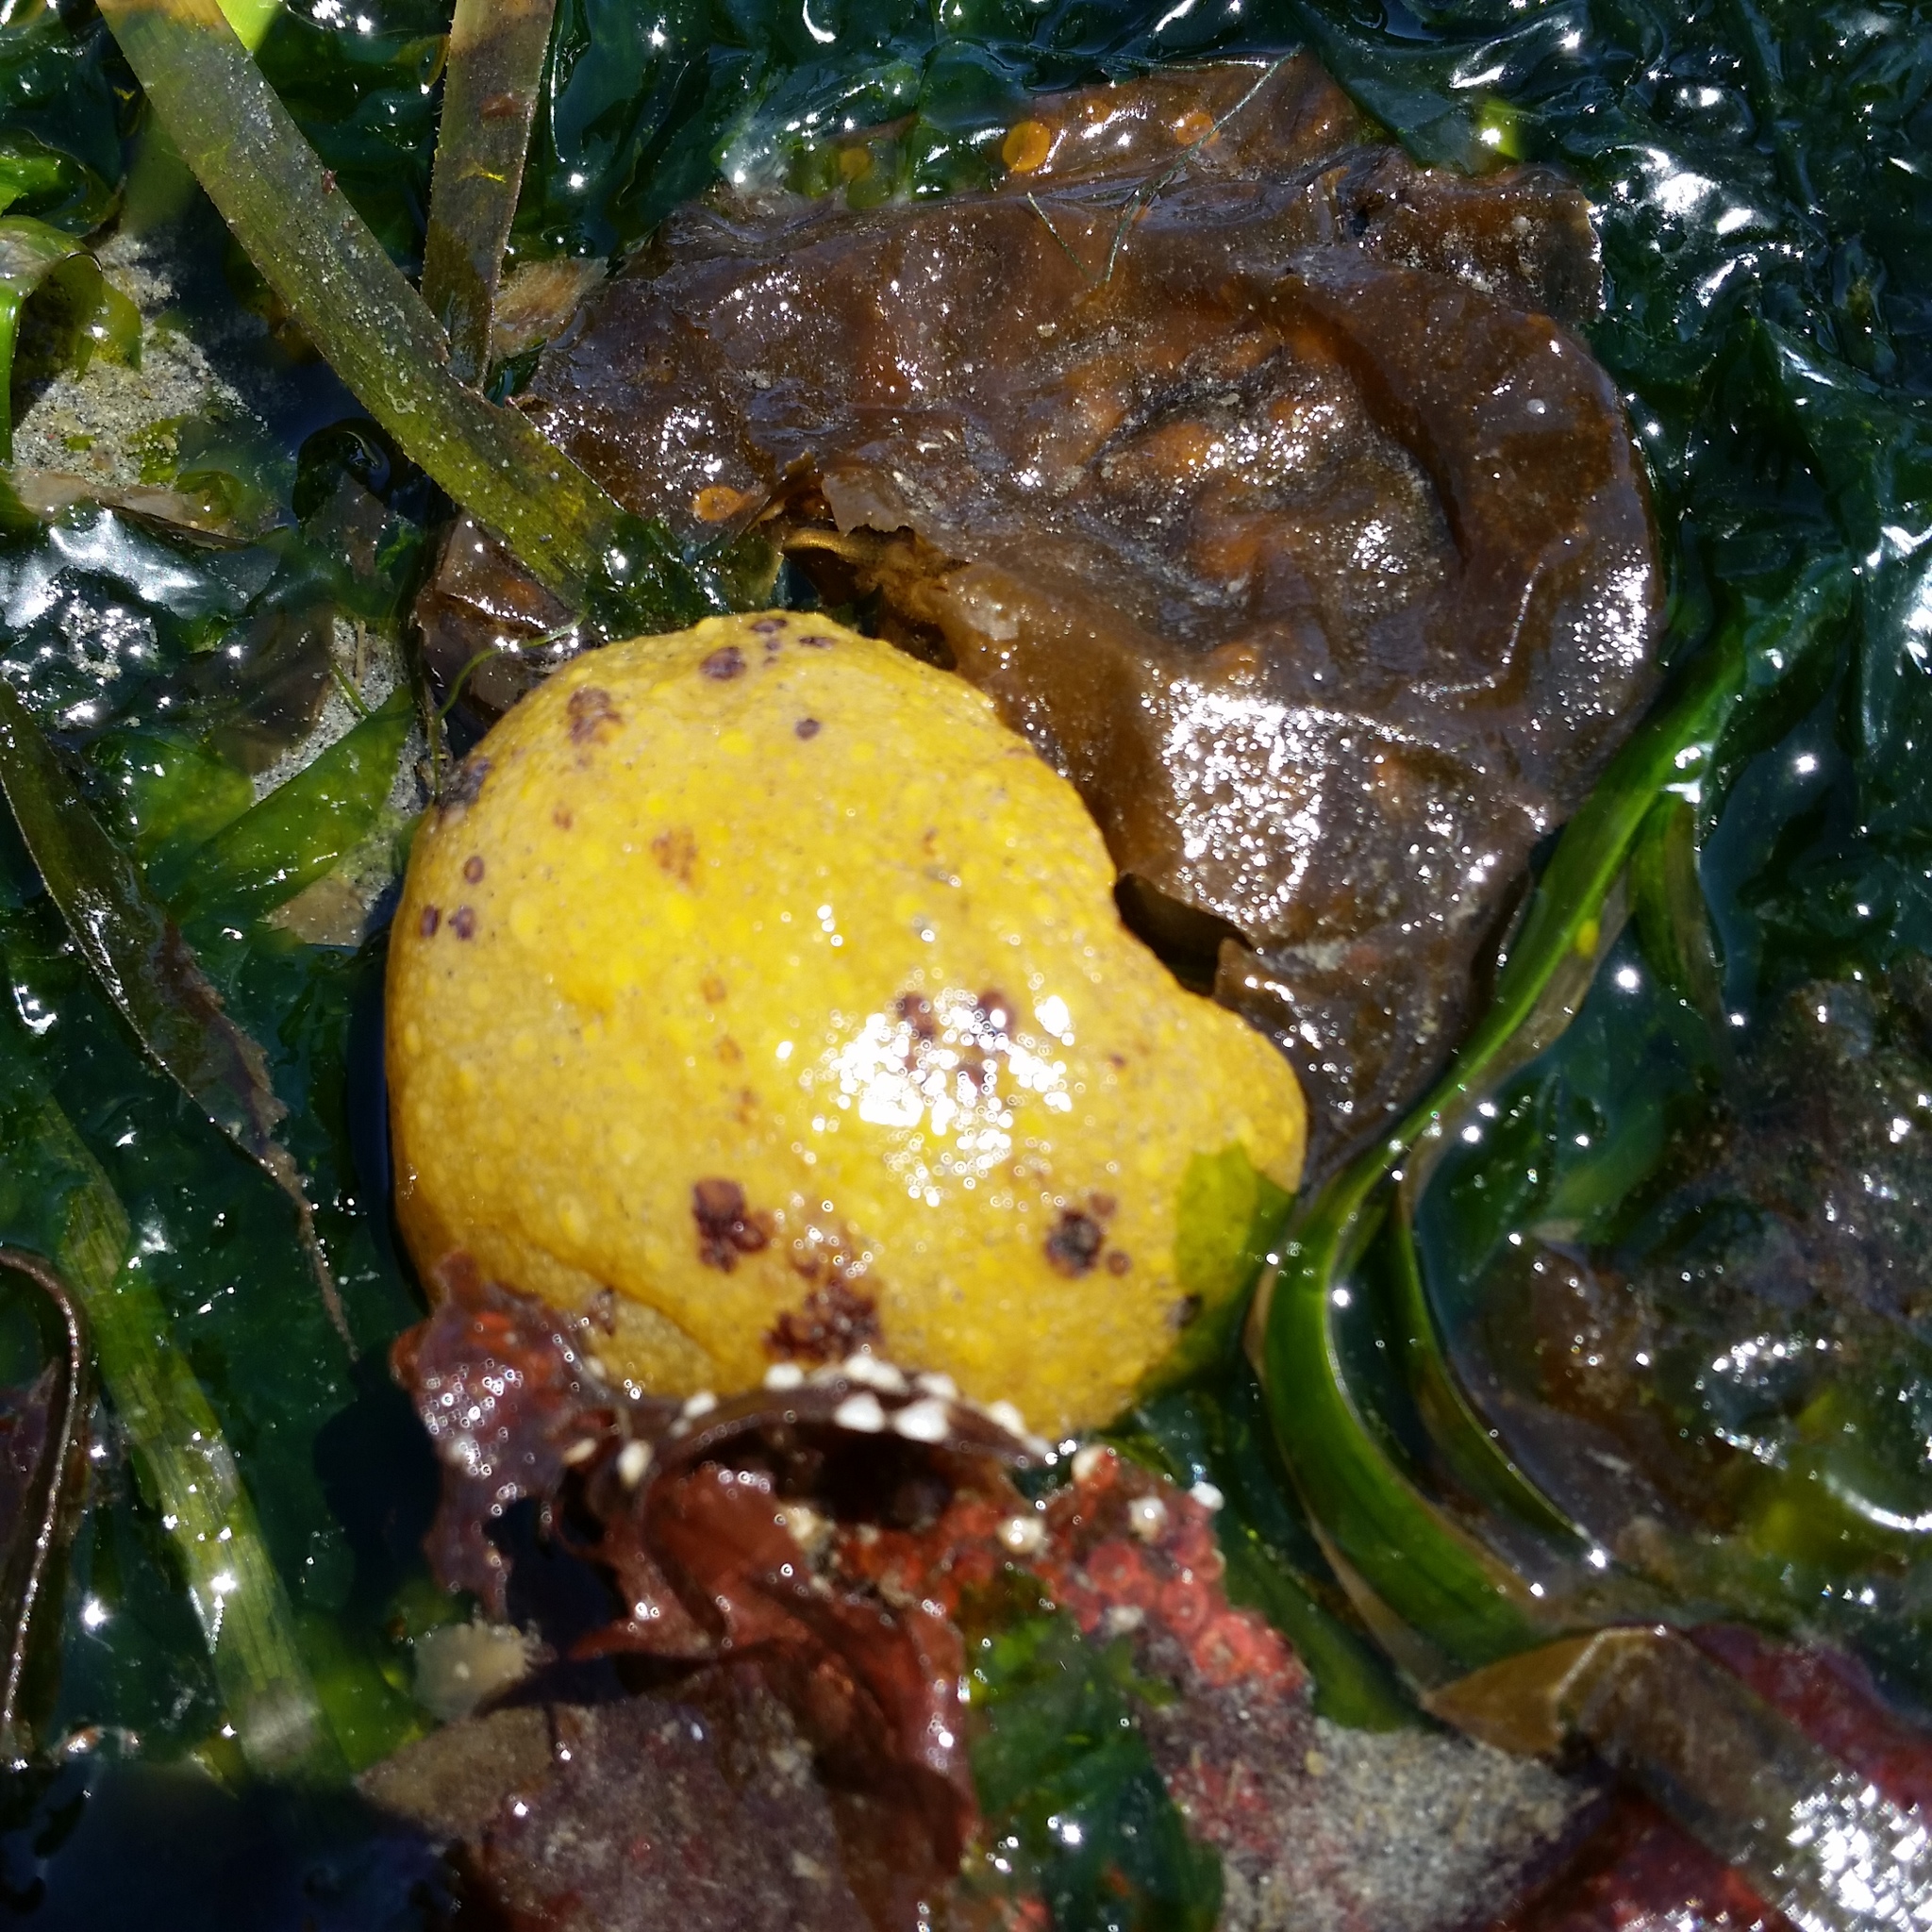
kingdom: Animalia
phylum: Mollusca
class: Gastropoda
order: Nudibranchia
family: Dorididae
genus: Doris
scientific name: Doris montereyensis
